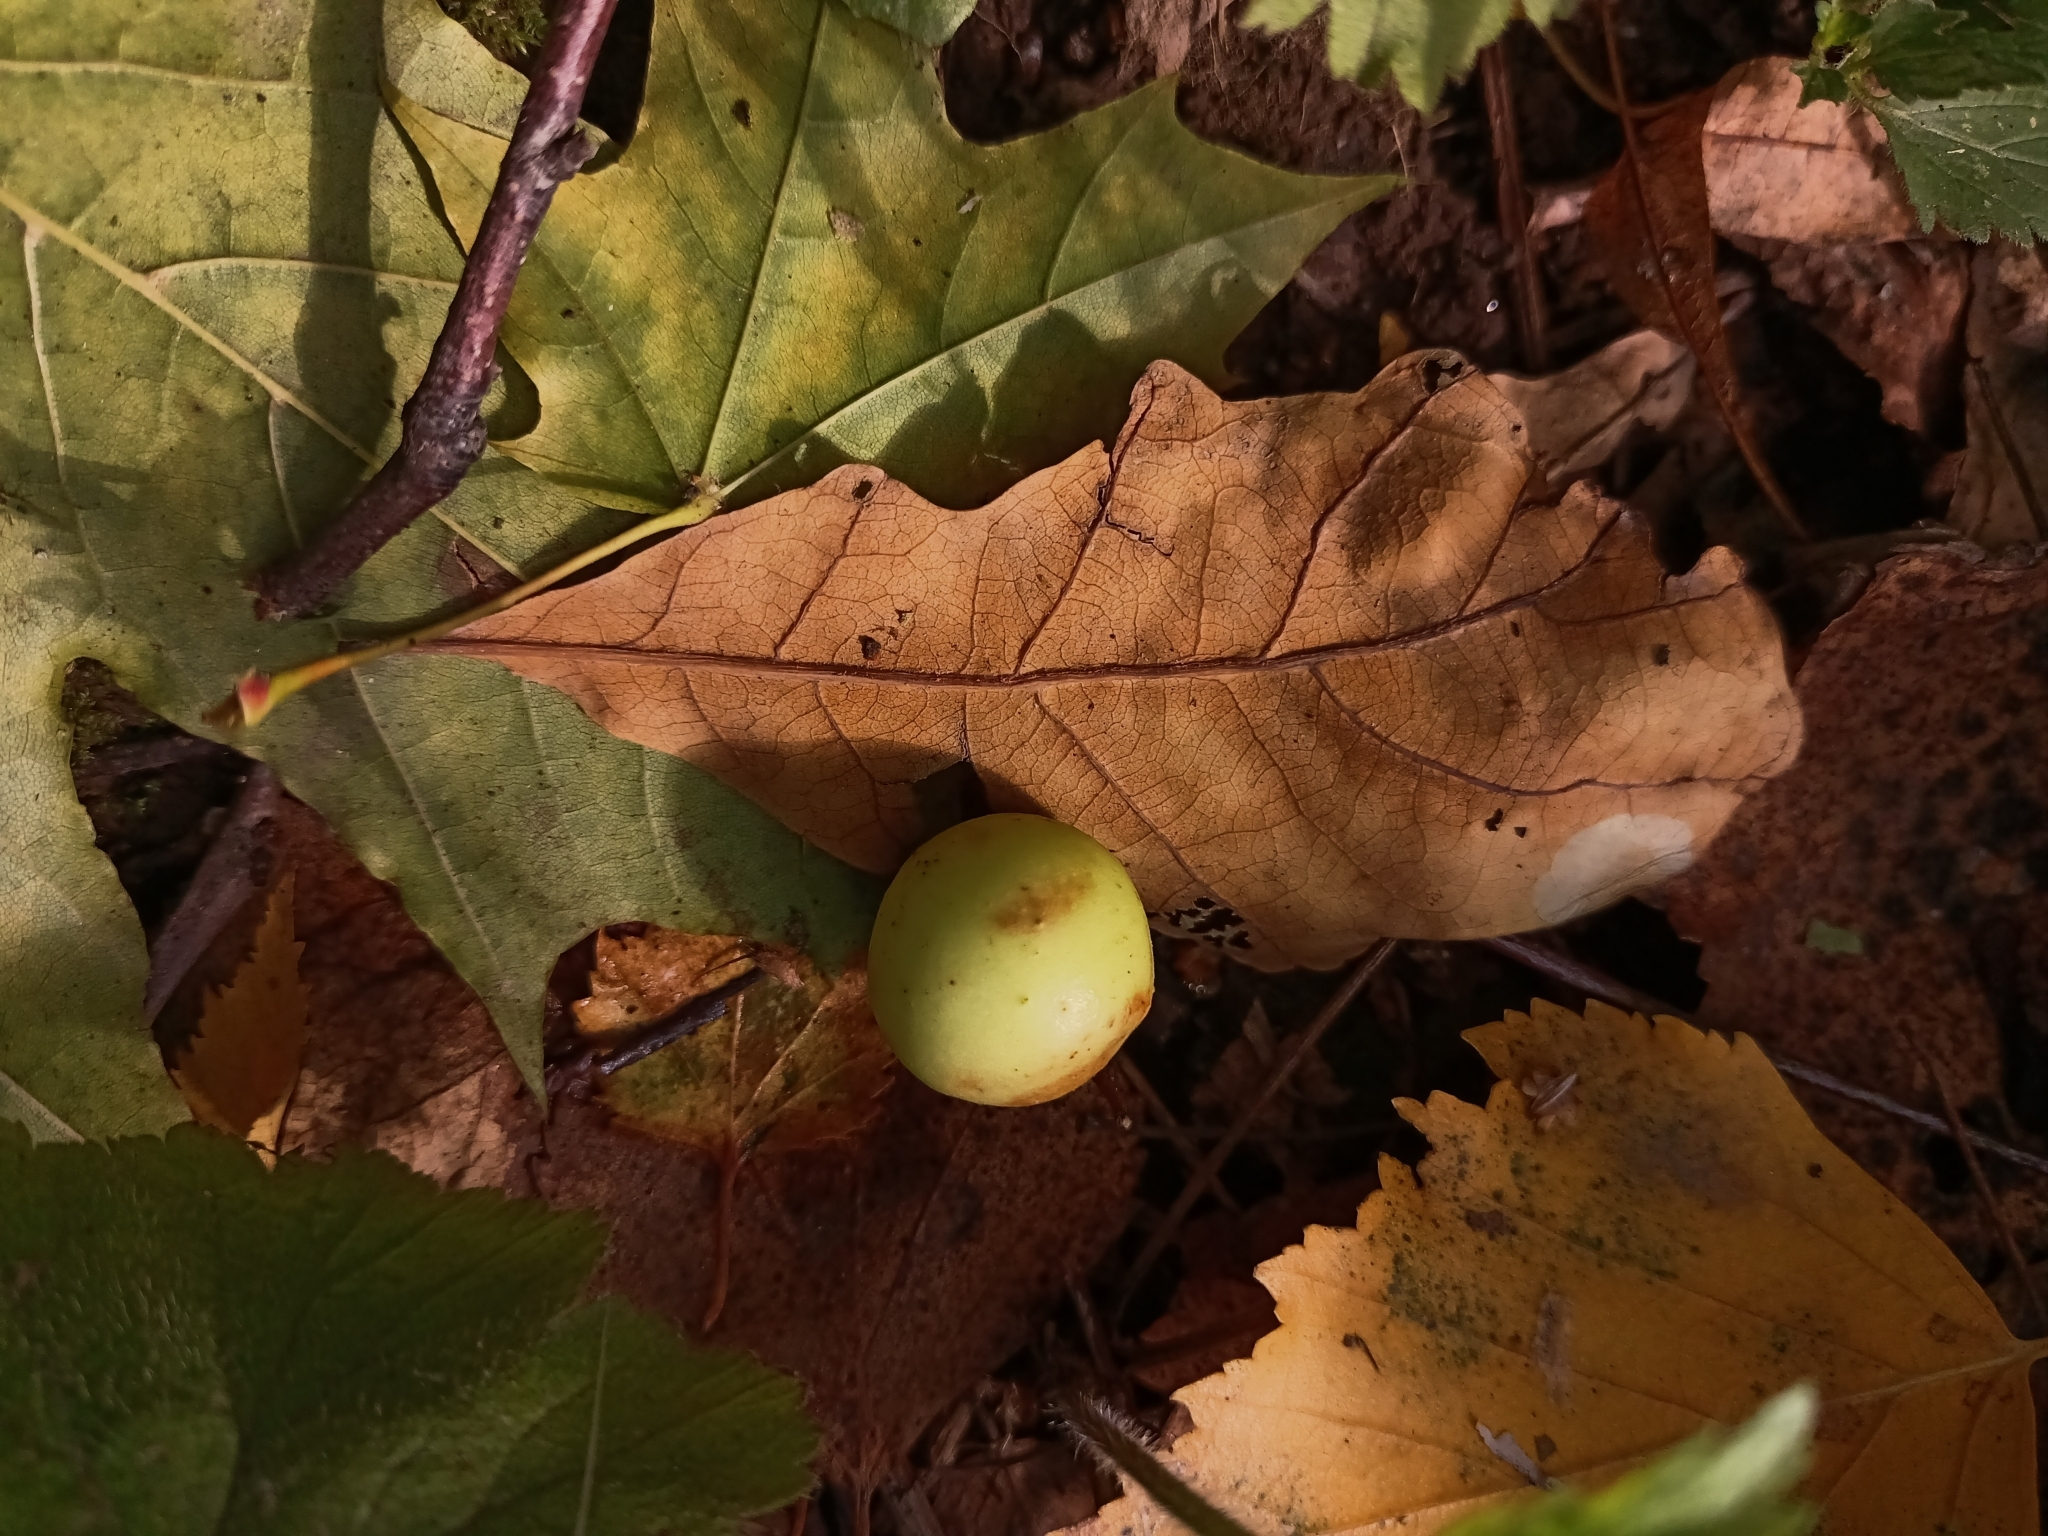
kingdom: Animalia
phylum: Arthropoda
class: Insecta
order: Hymenoptera
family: Cynipidae
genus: Cynips
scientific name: Cynips quercusfolii
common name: Cherry gall
